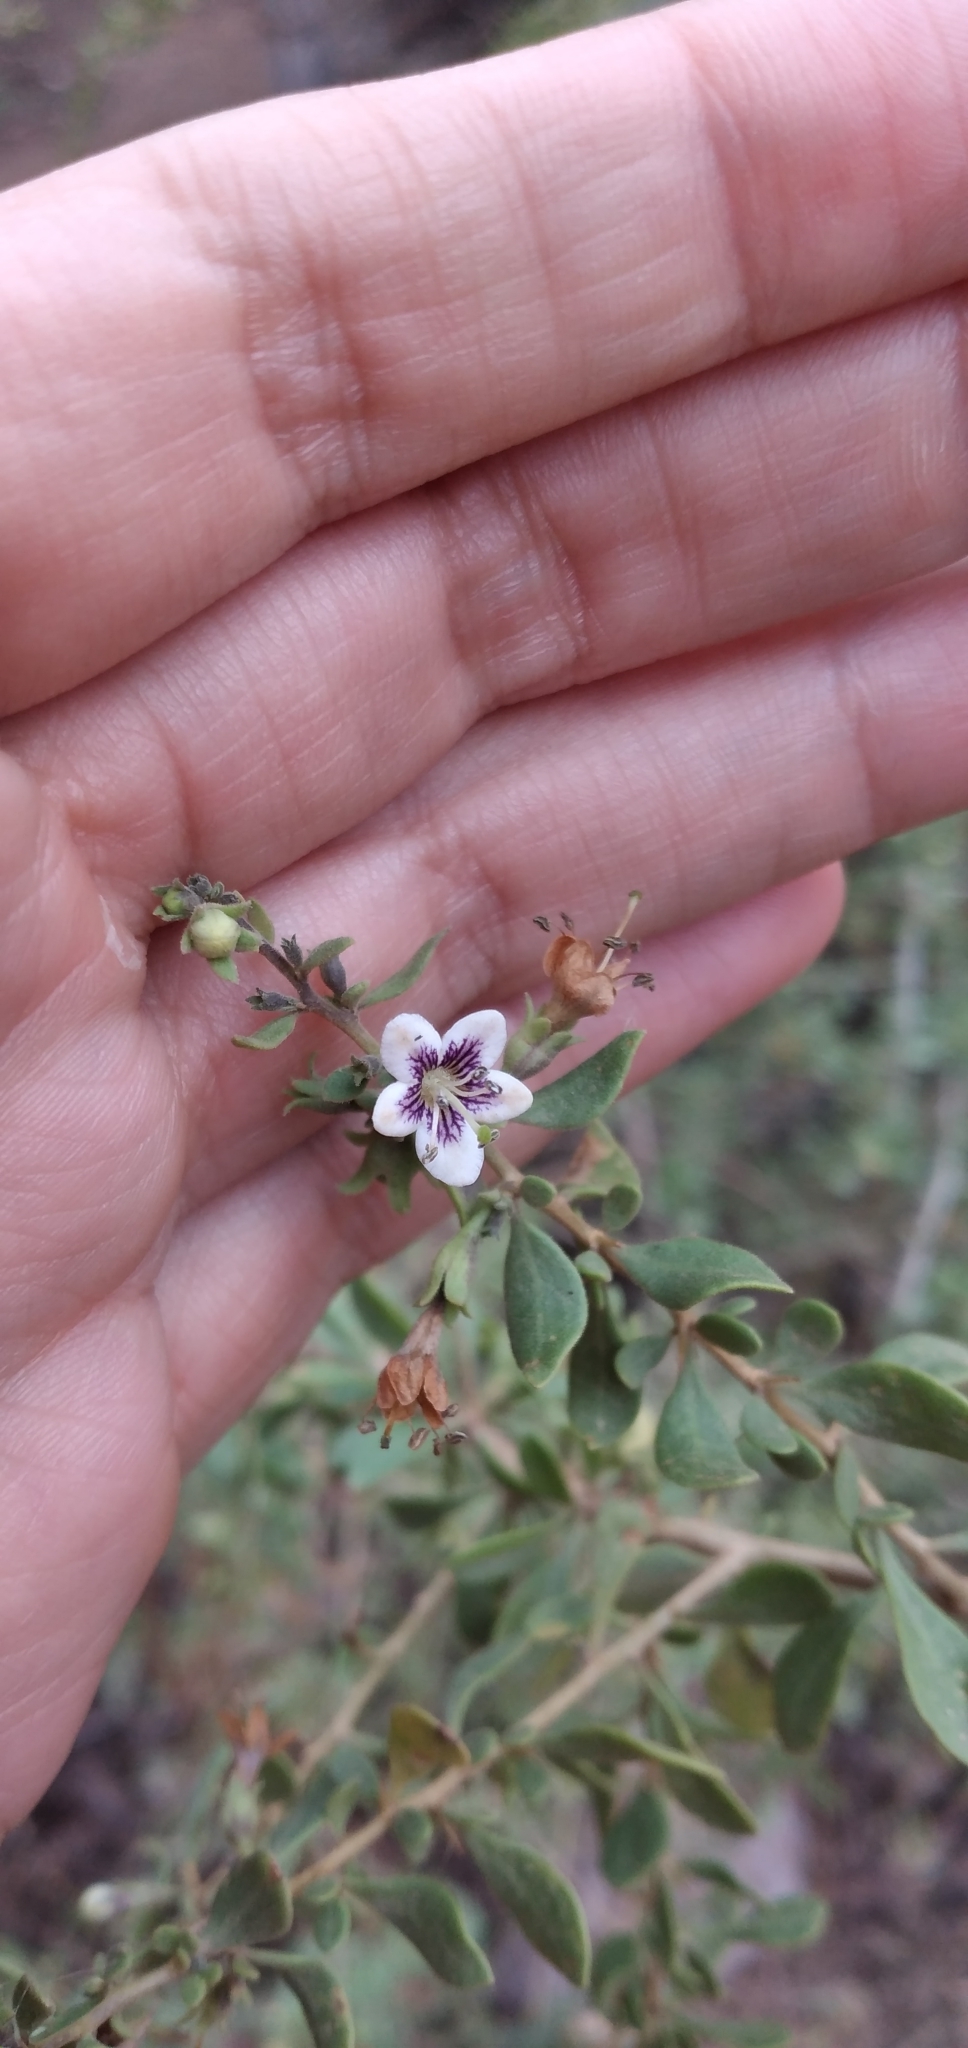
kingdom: Plantae
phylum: Tracheophyta
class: Magnoliopsida
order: Solanales
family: Solanaceae
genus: Lycium
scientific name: Lycium tenuispinosum
